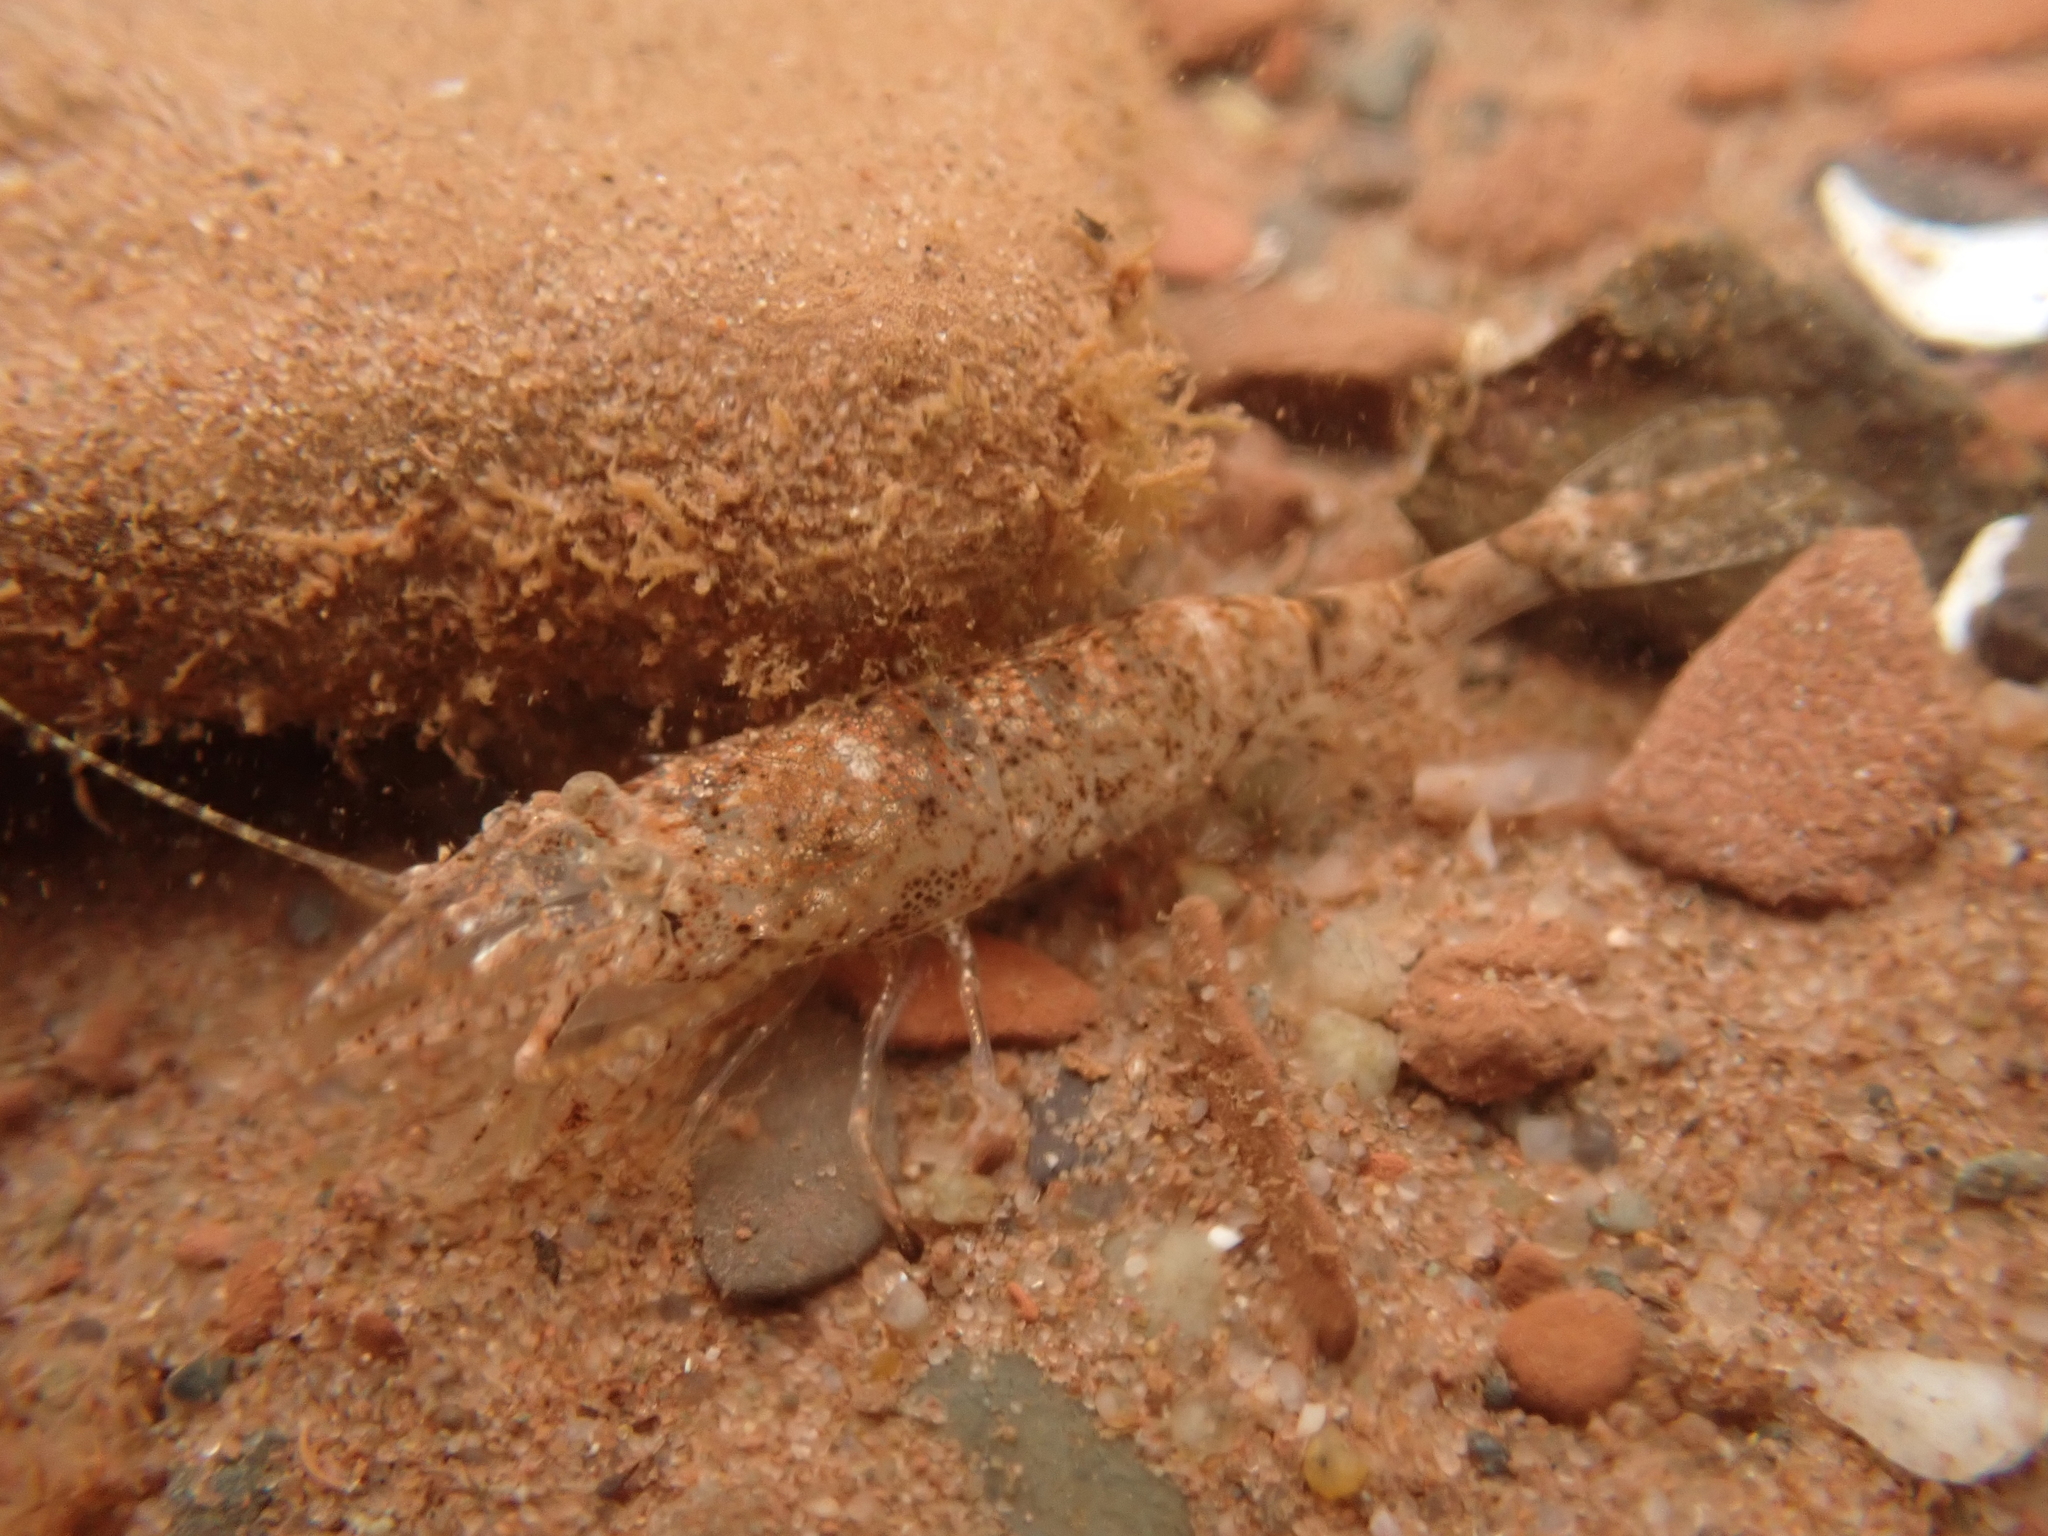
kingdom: Animalia
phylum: Arthropoda
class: Malacostraca
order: Decapoda
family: Crangonidae
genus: Crangon
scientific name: Crangon septemspinosa
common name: Bail shrimp
